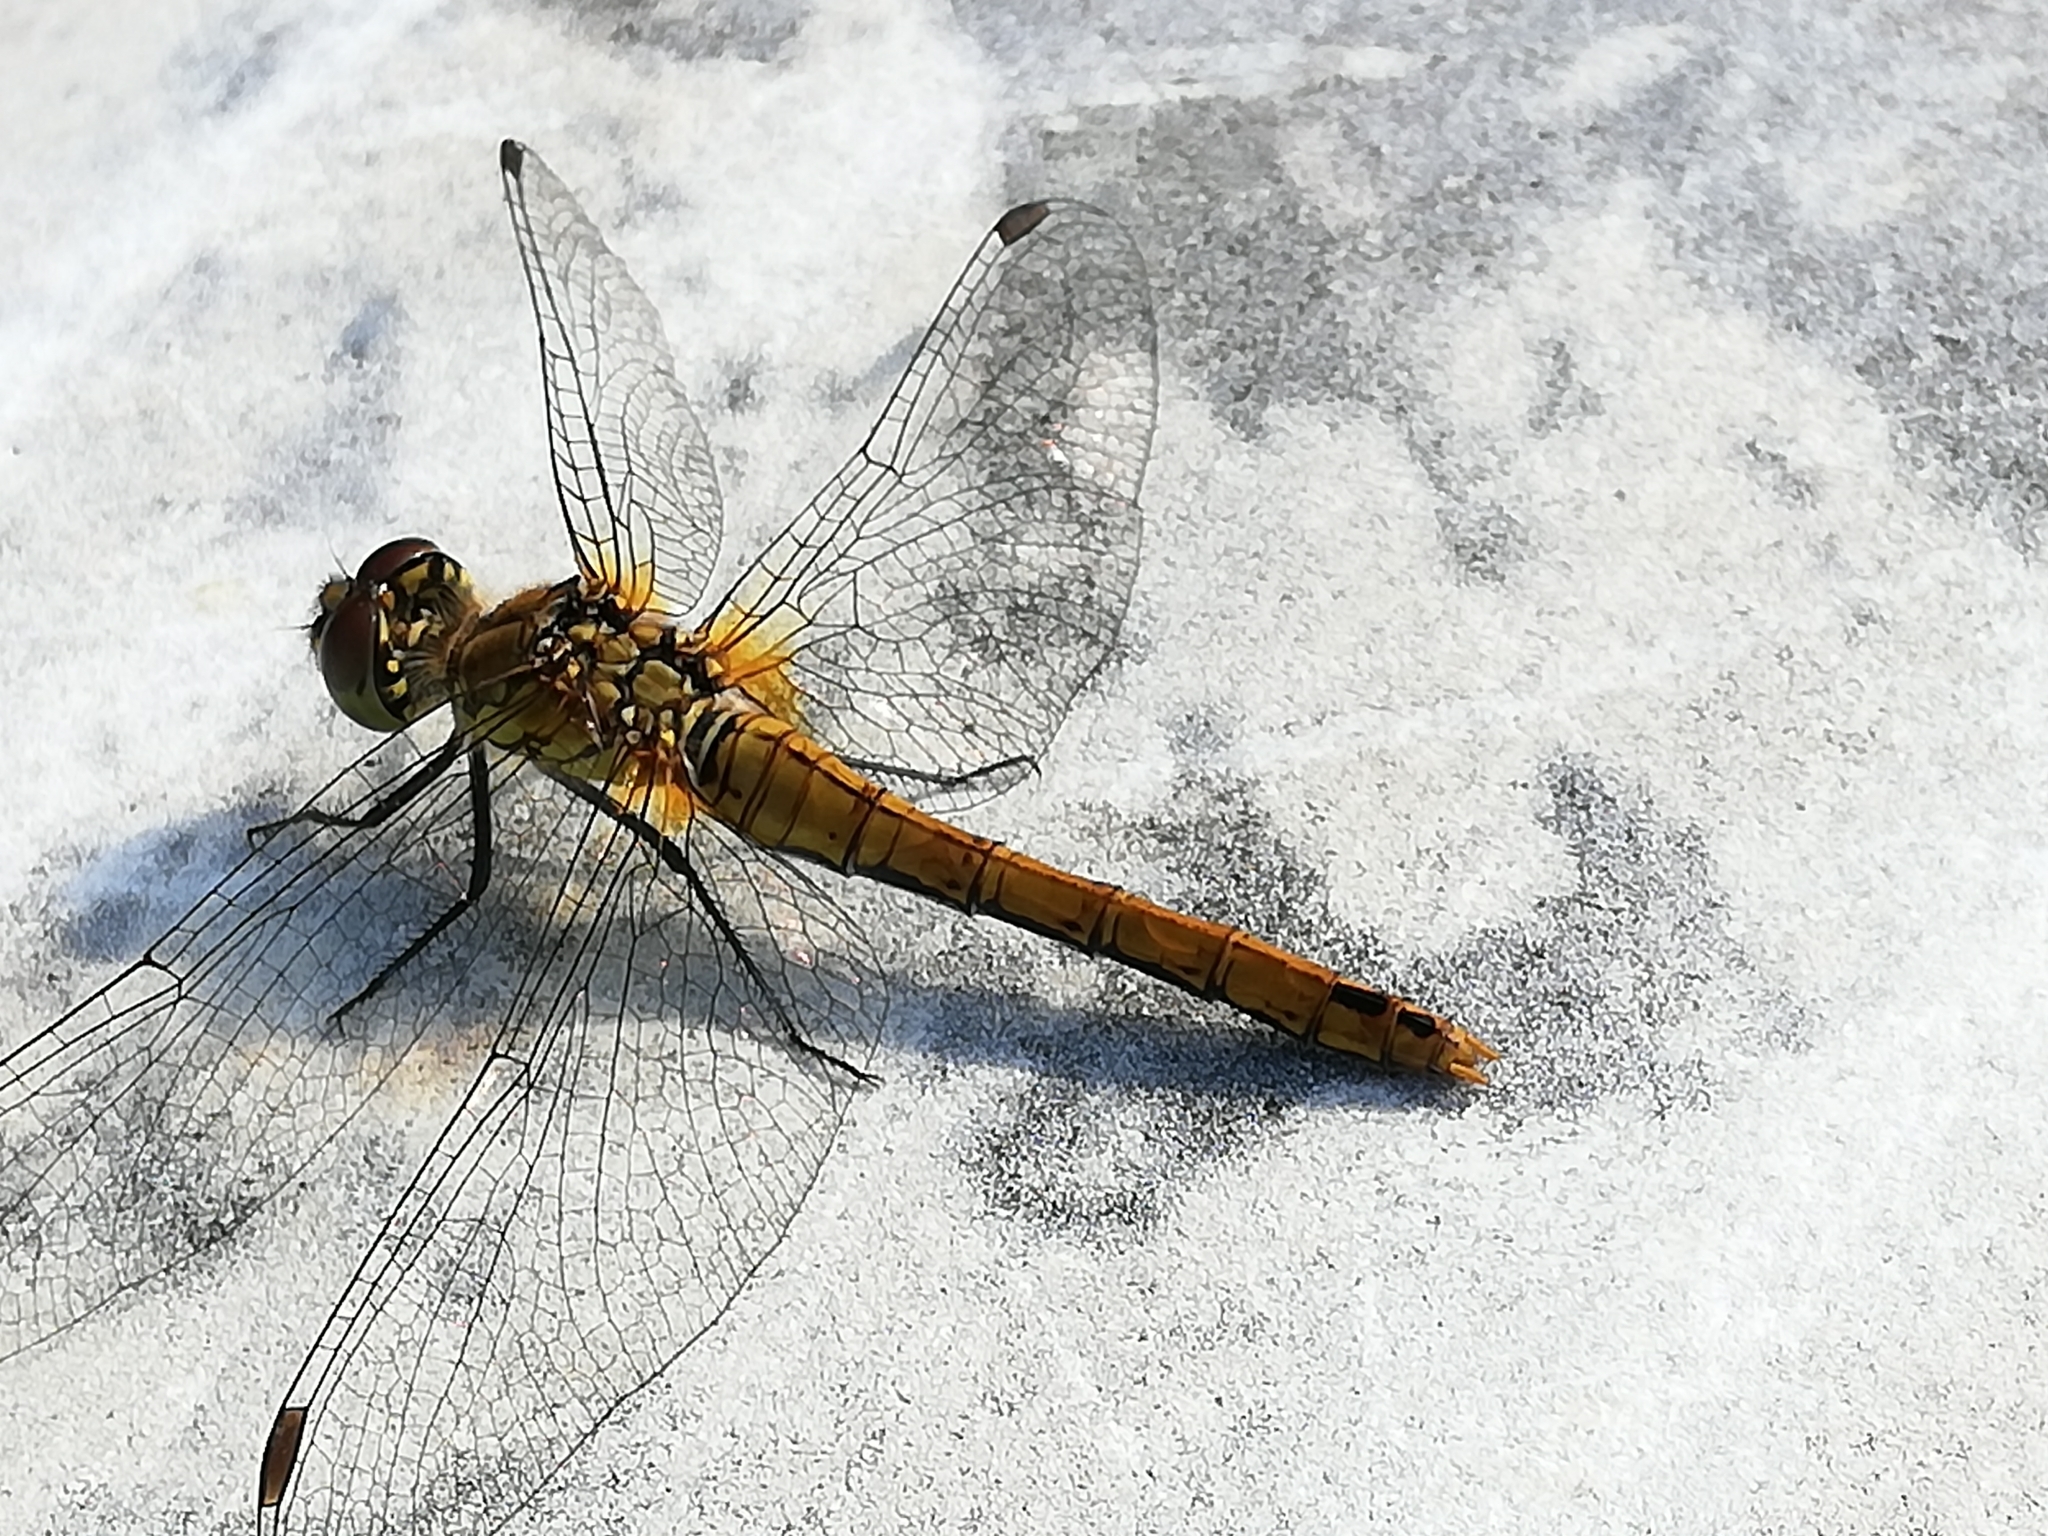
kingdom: Animalia
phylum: Arthropoda
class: Insecta
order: Odonata
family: Libellulidae
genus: Sympetrum
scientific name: Sympetrum sanguineum
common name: Ruddy darter
